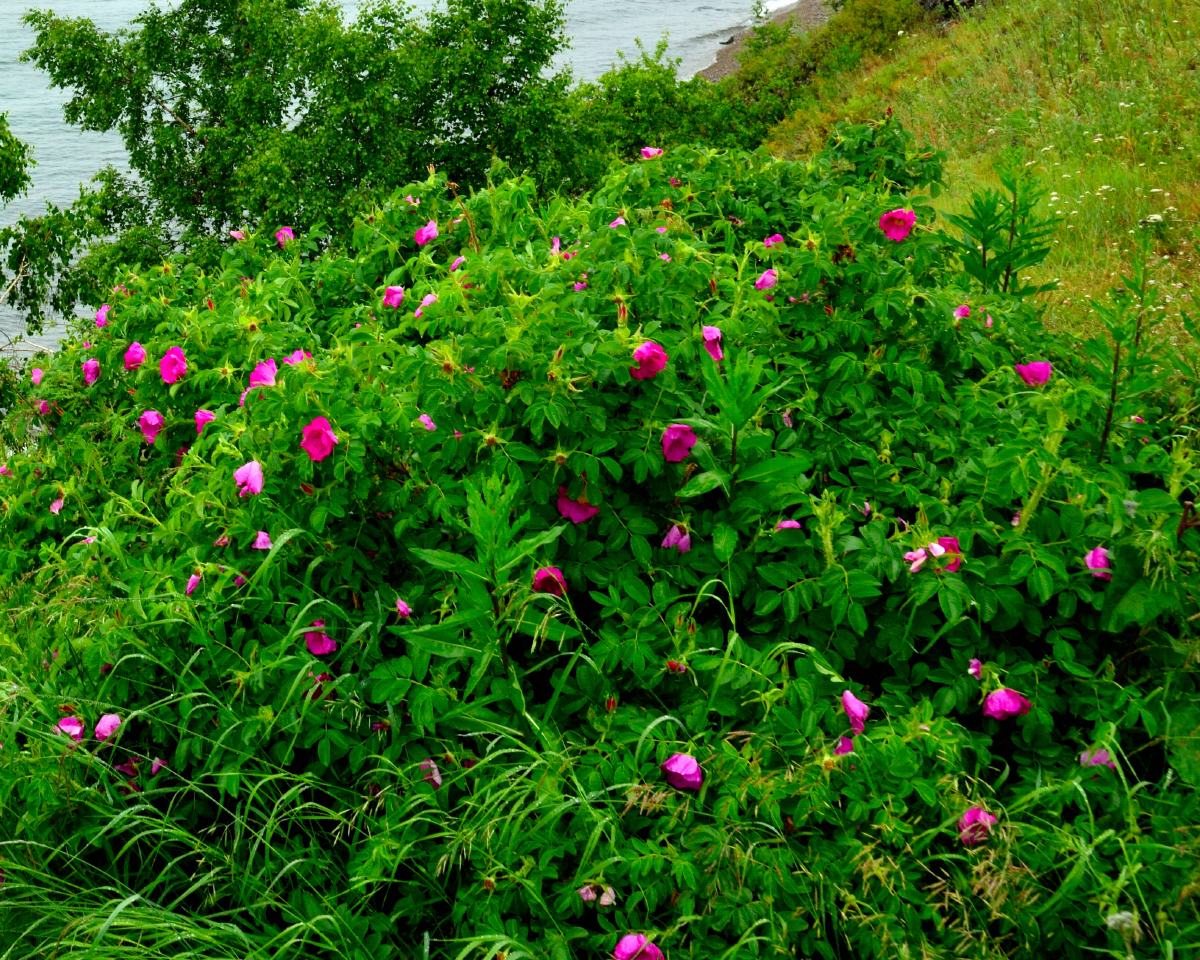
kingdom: Plantae
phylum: Tracheophyta
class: Magnoliopsida
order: Rosales
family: Rosaceae
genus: Rosa
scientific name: Rosa rugosa
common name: Japanese rose
